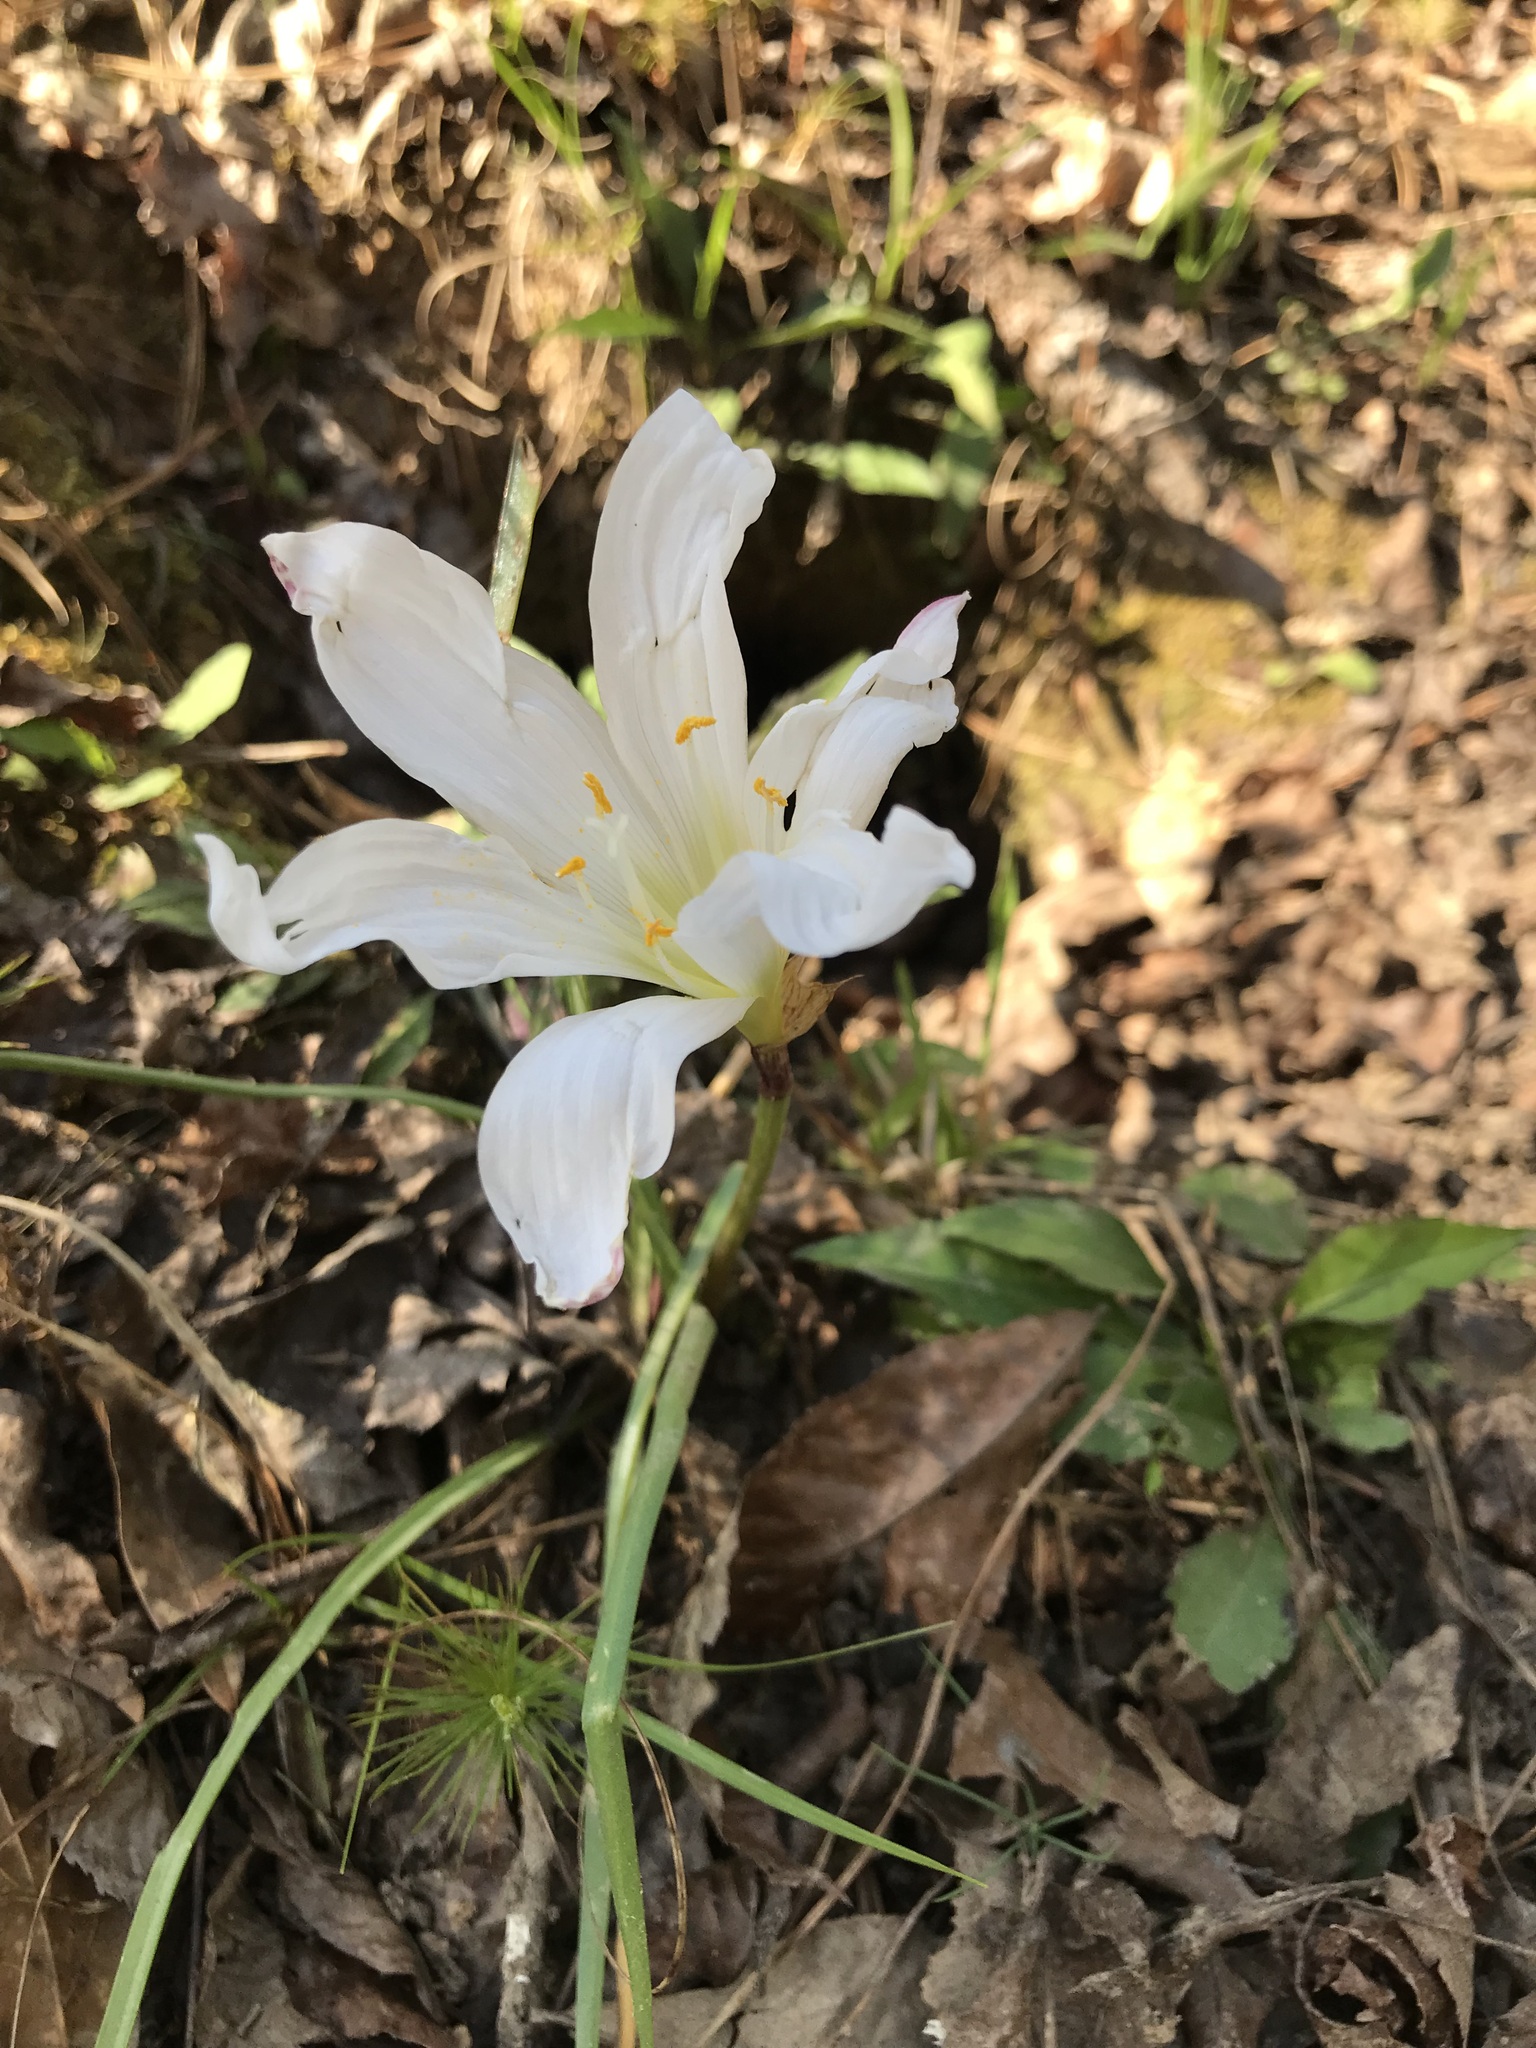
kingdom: Plantae
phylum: Tracheophyta
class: Liliopsida
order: Asparagales
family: Amaryllidaceae
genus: Zephyranthes
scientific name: Zephyranthes atamasco
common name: Atamasco lily
